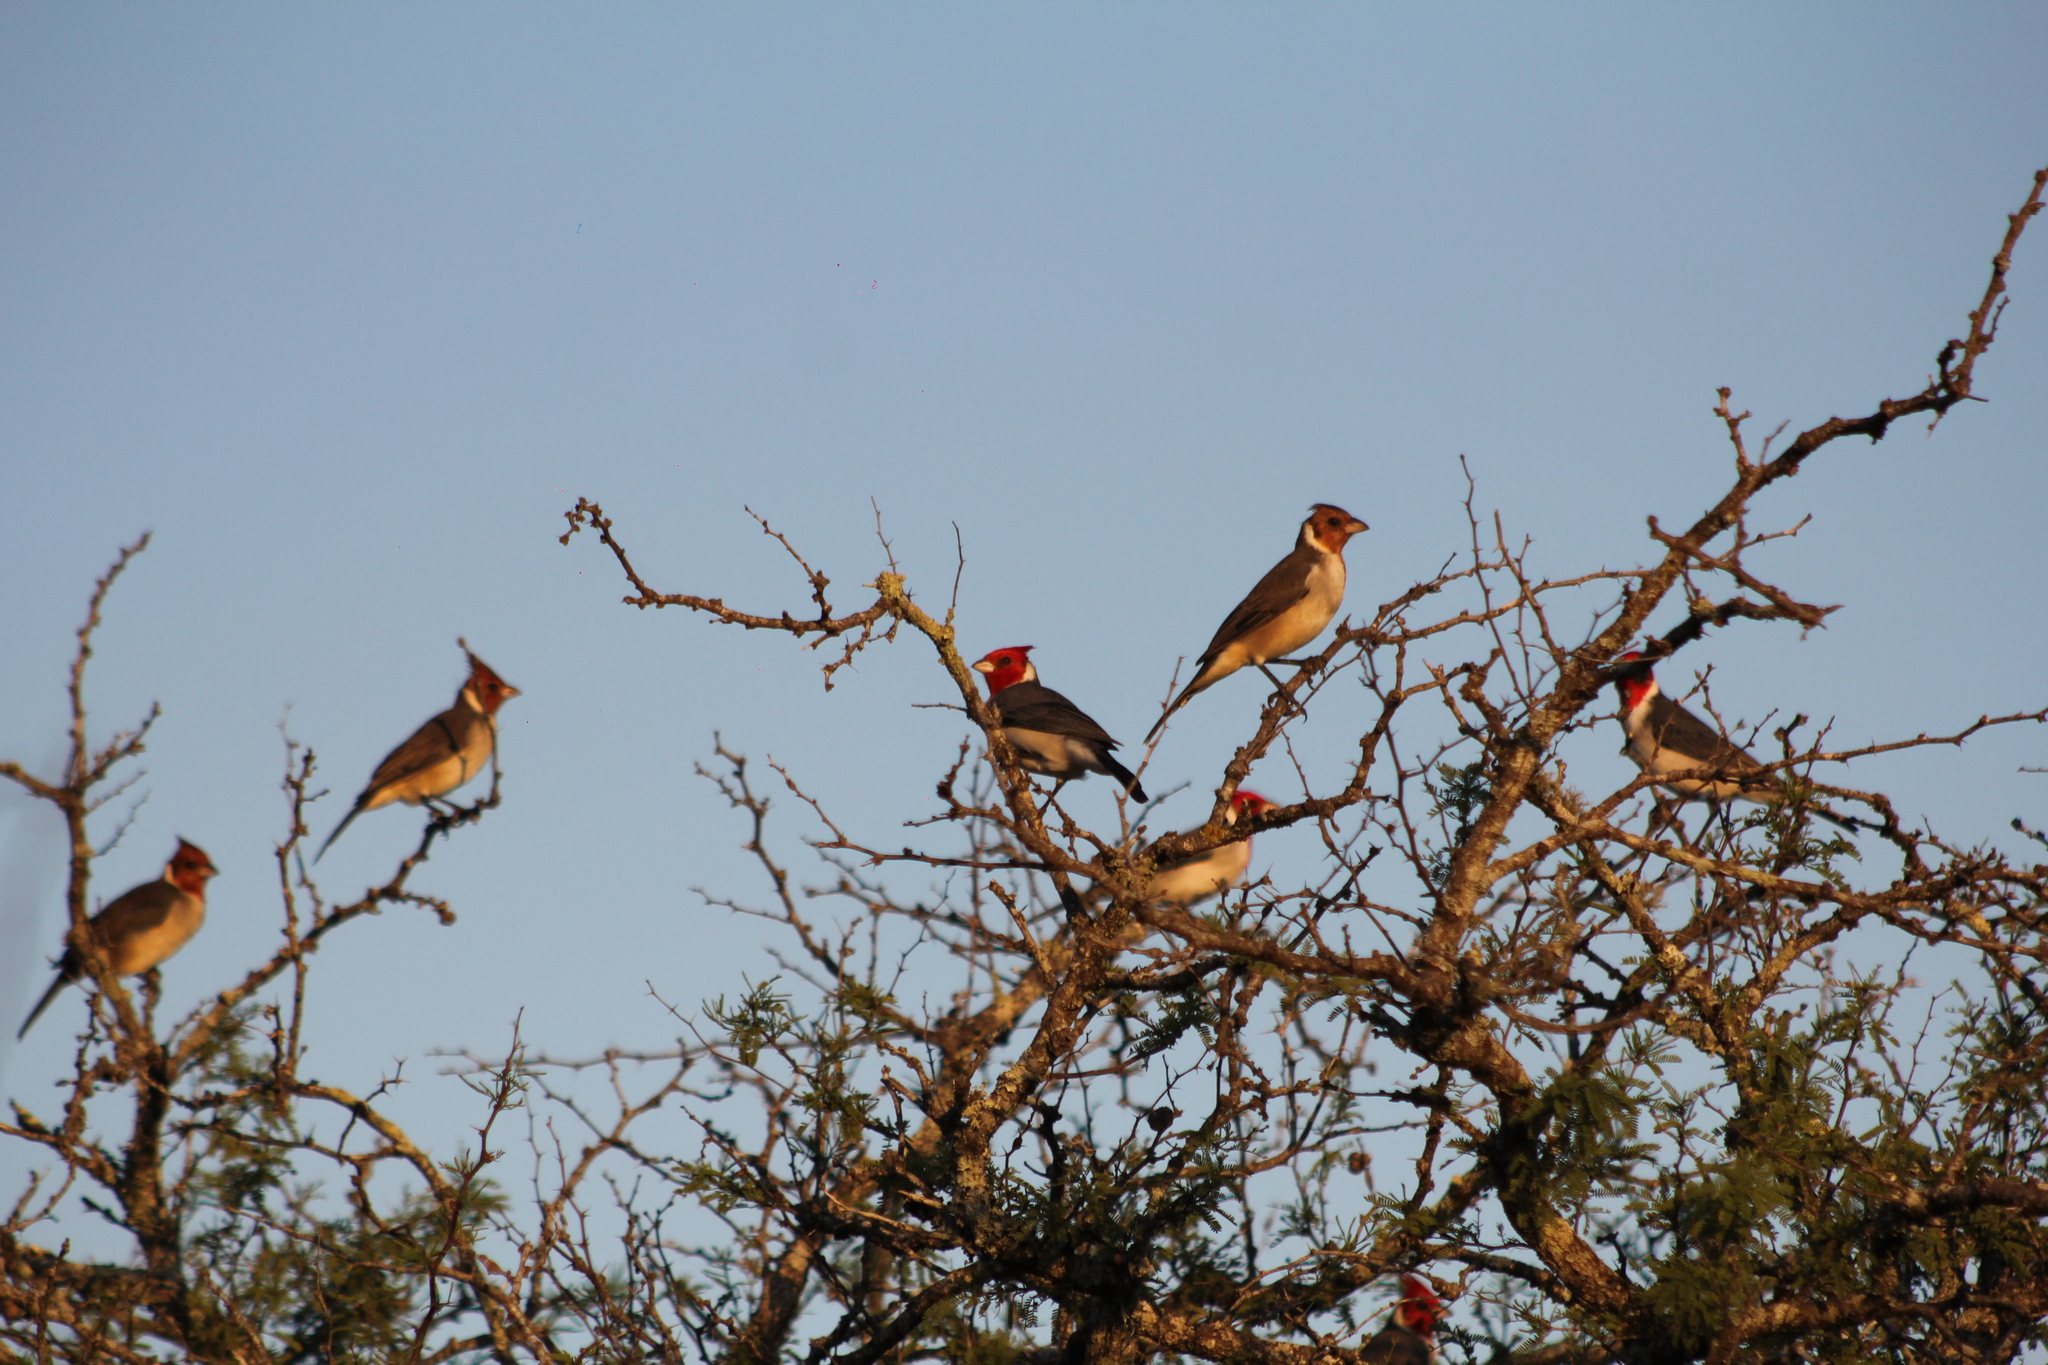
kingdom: Animalia
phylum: Chordata
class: Aves
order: Passeriformes
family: Thraupidae
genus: Paroaria
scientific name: Paroaria coronata
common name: Red-crested cardinal
